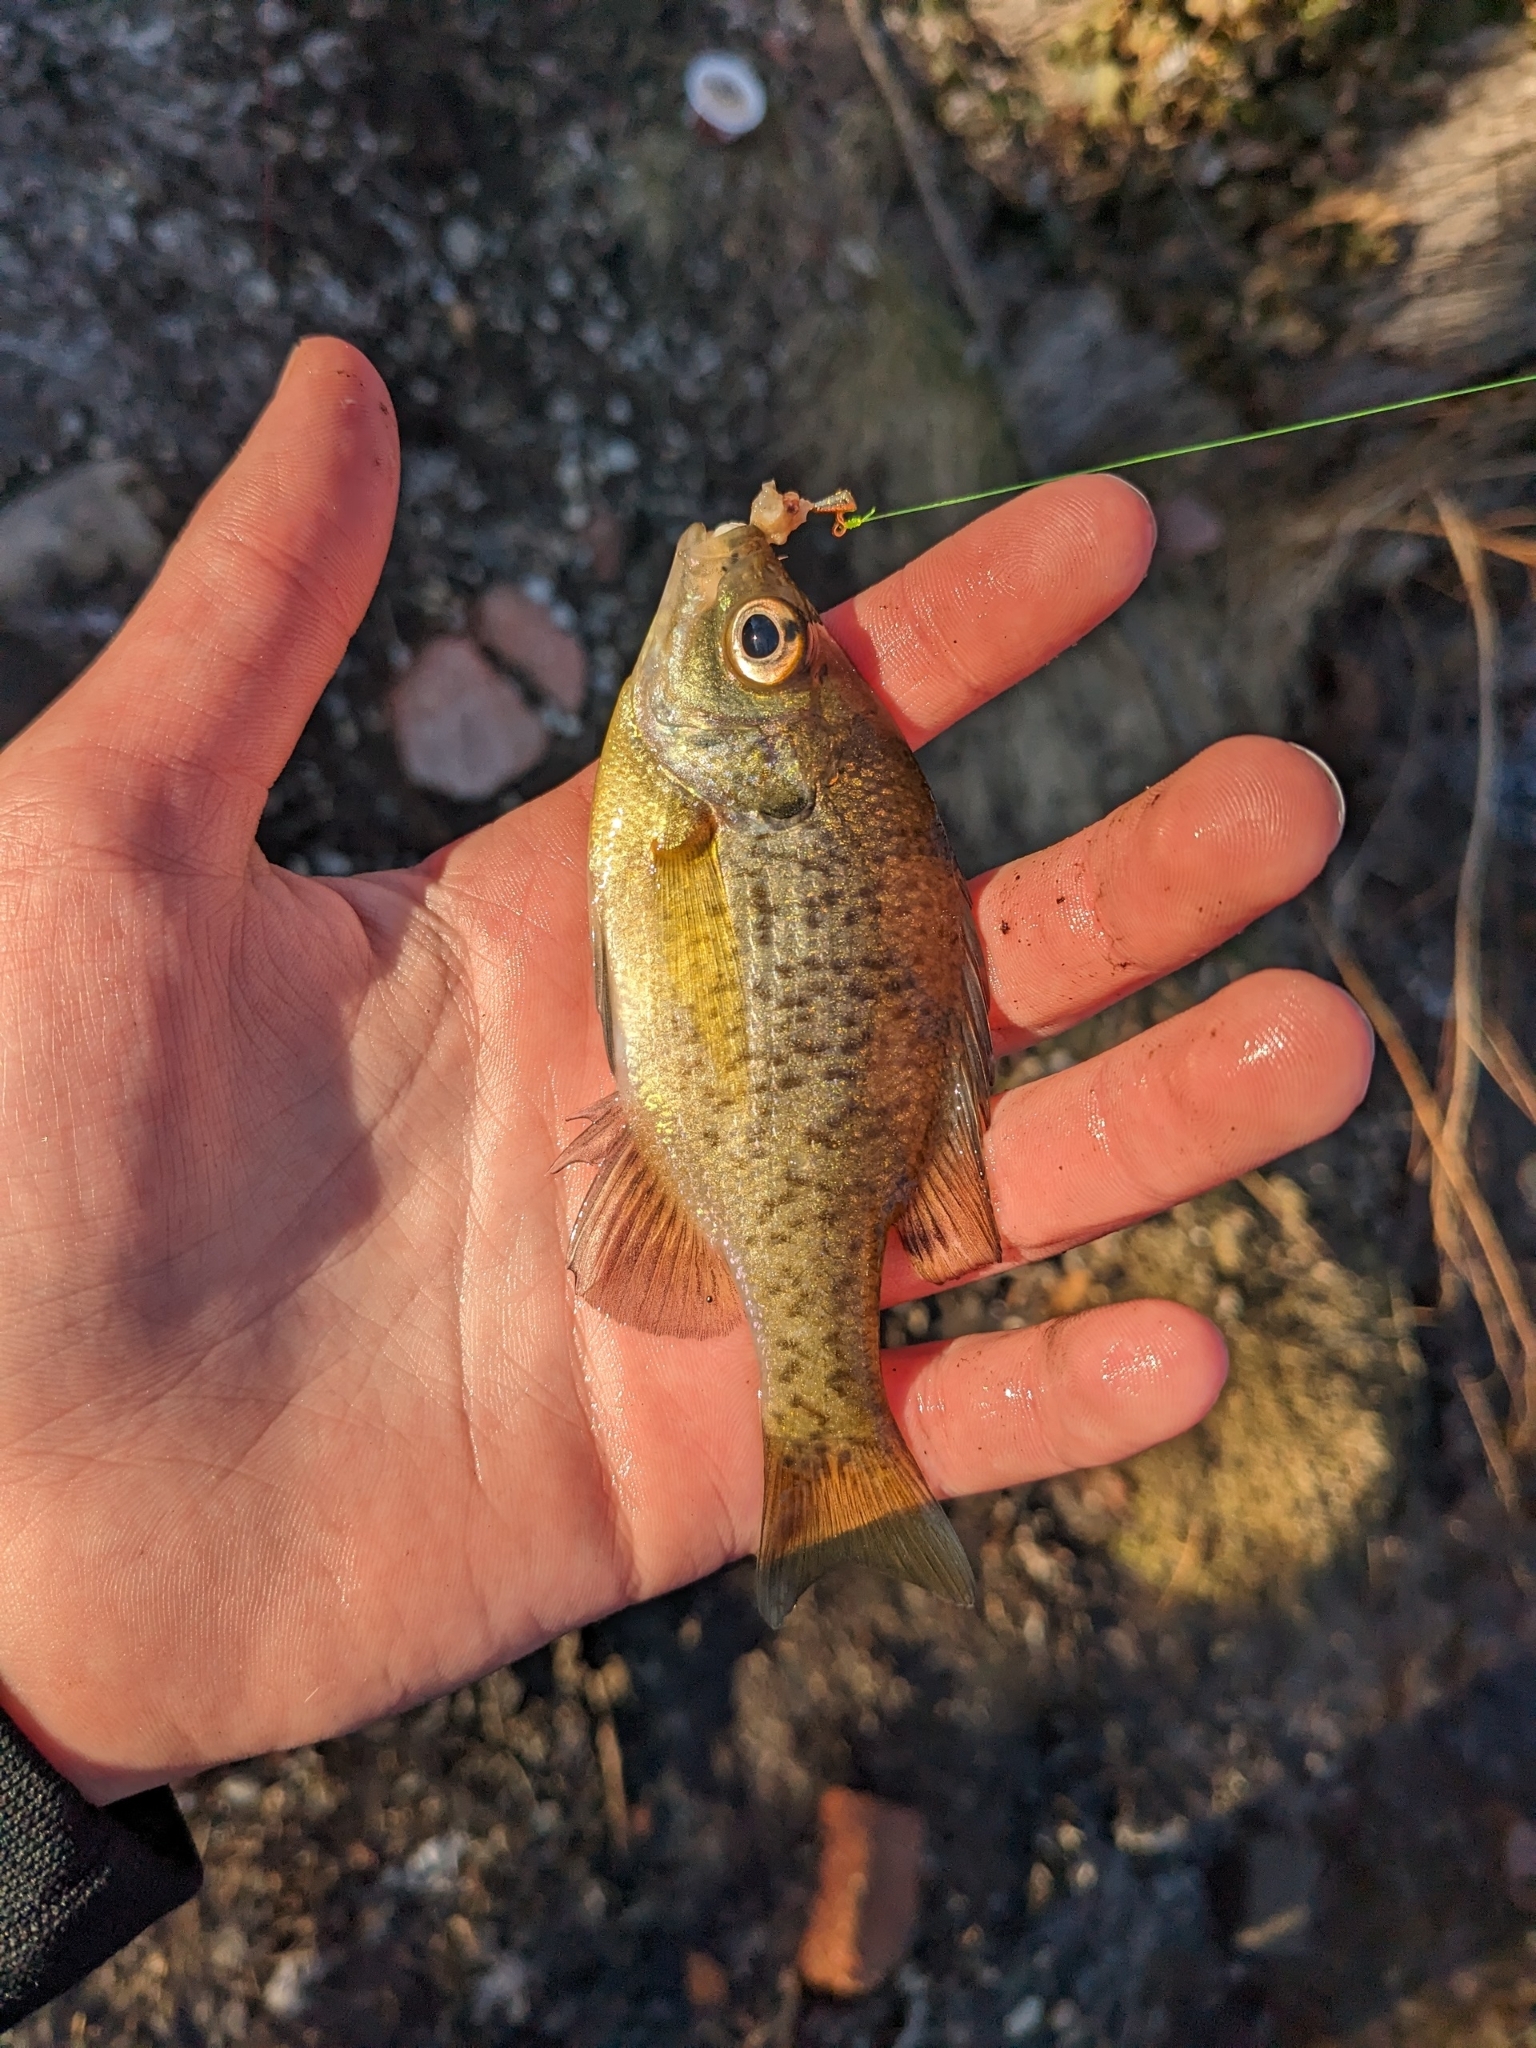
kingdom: Animalia
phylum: Chordata
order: Perciformes
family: Centrarchidae
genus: Lepomis
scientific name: Lepomis macrochirus
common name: Bluegill
